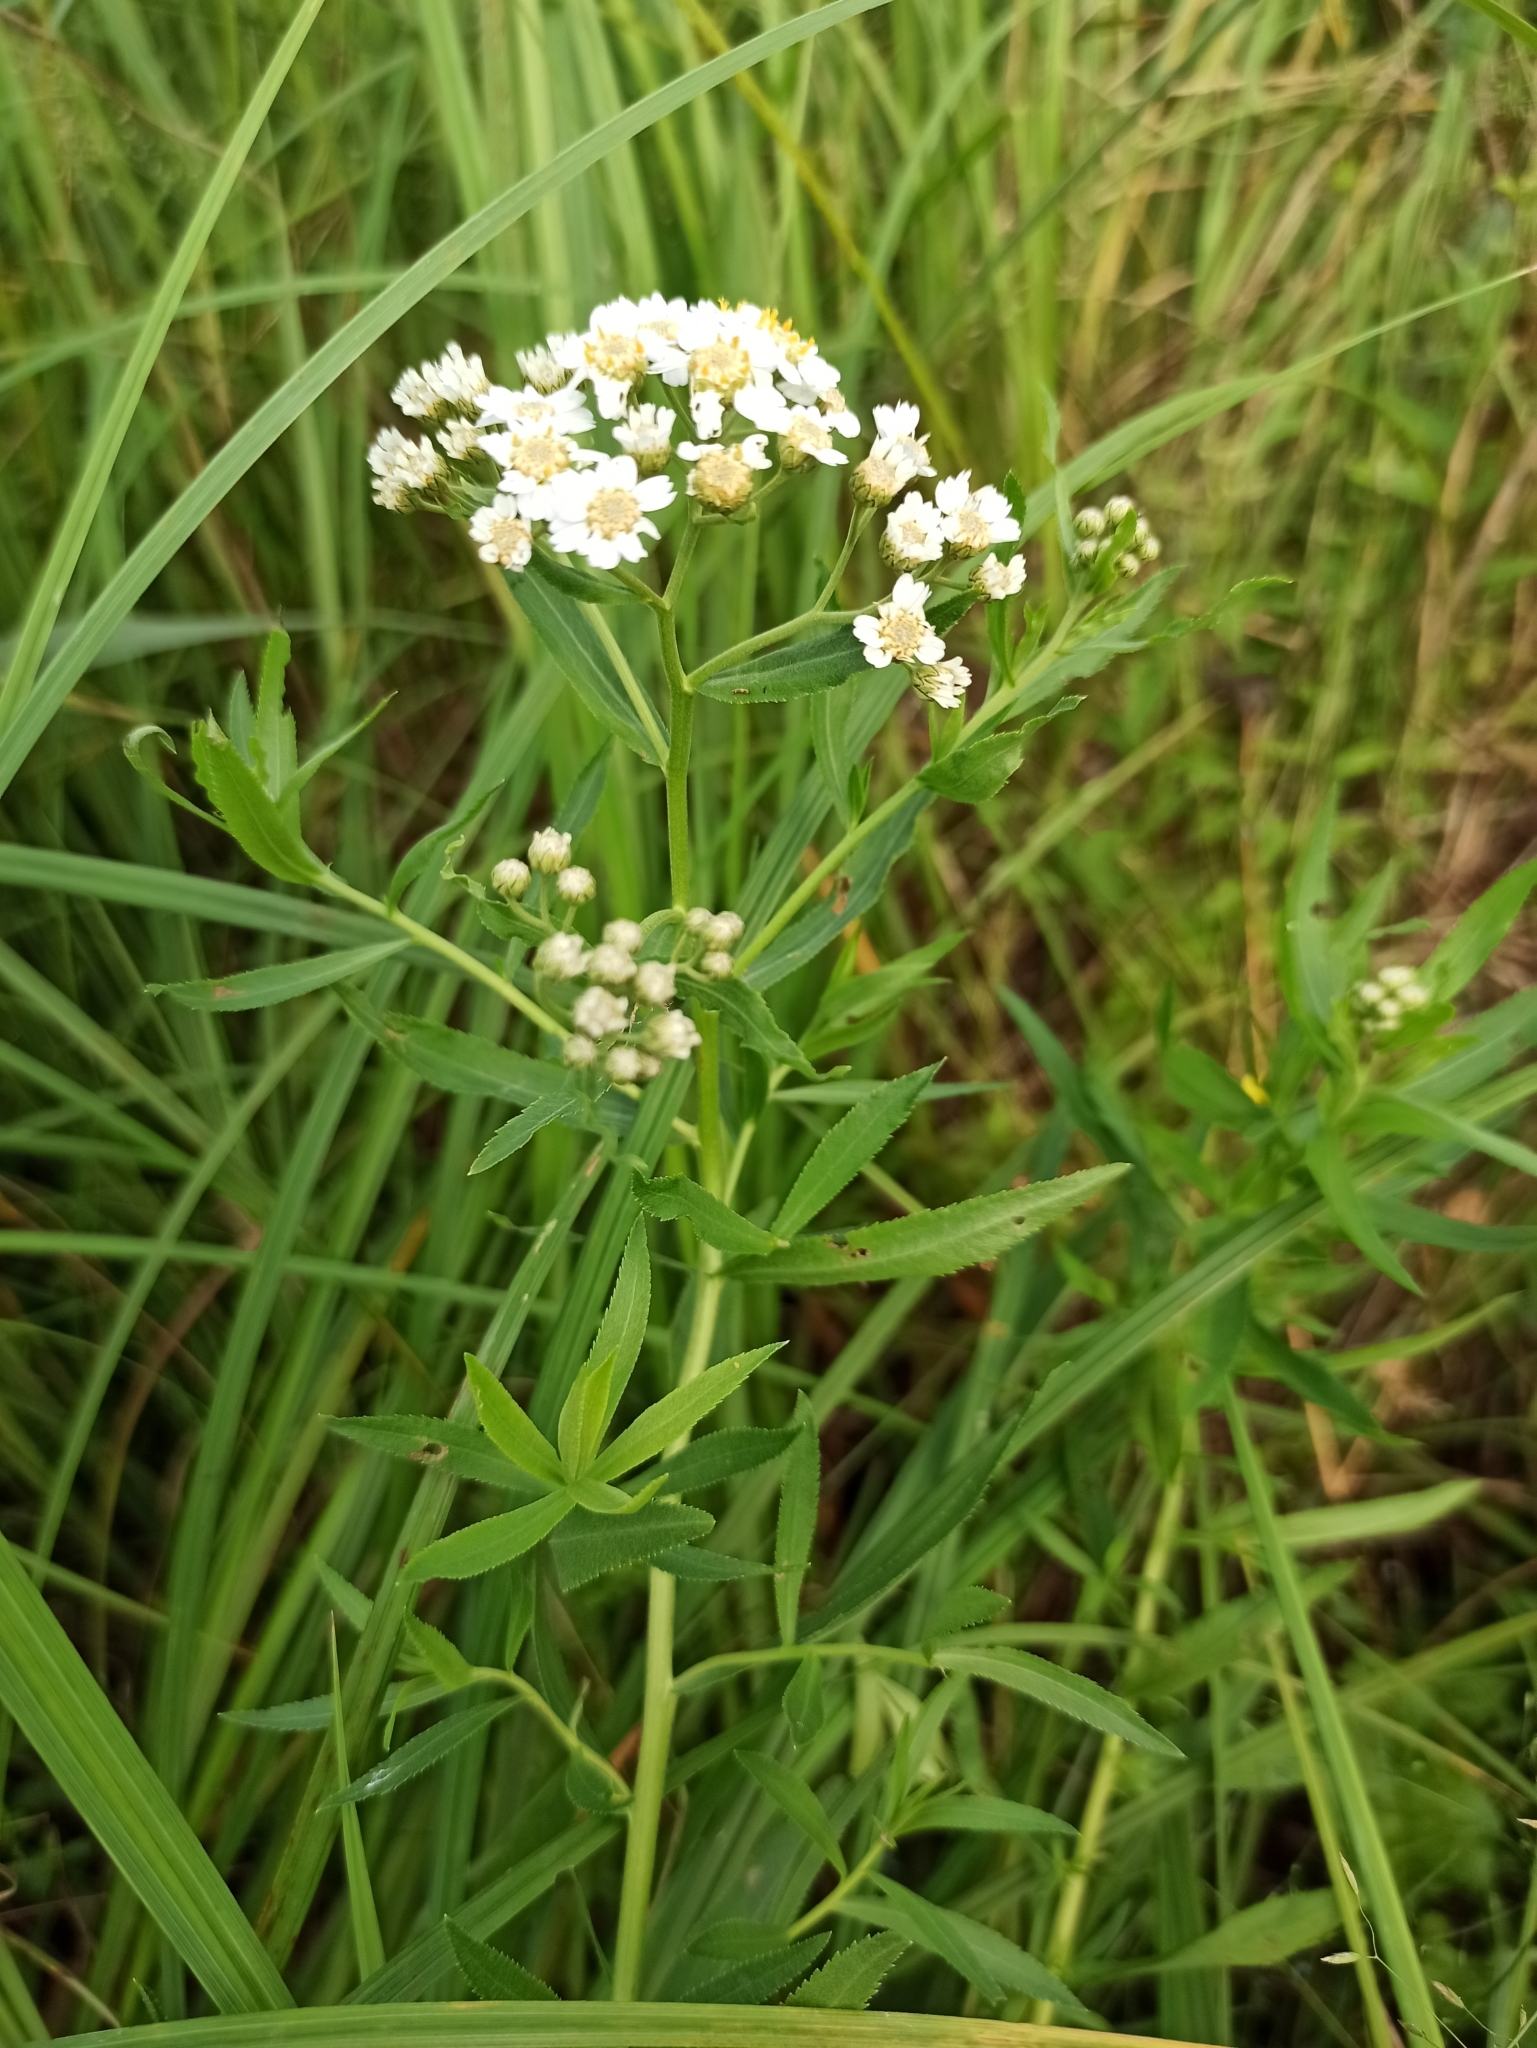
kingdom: Plantae
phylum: Tracheophyta
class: Magnoliopsida
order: Asterales
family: Asteraceae
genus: Achillea
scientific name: Achillea salicifolia
